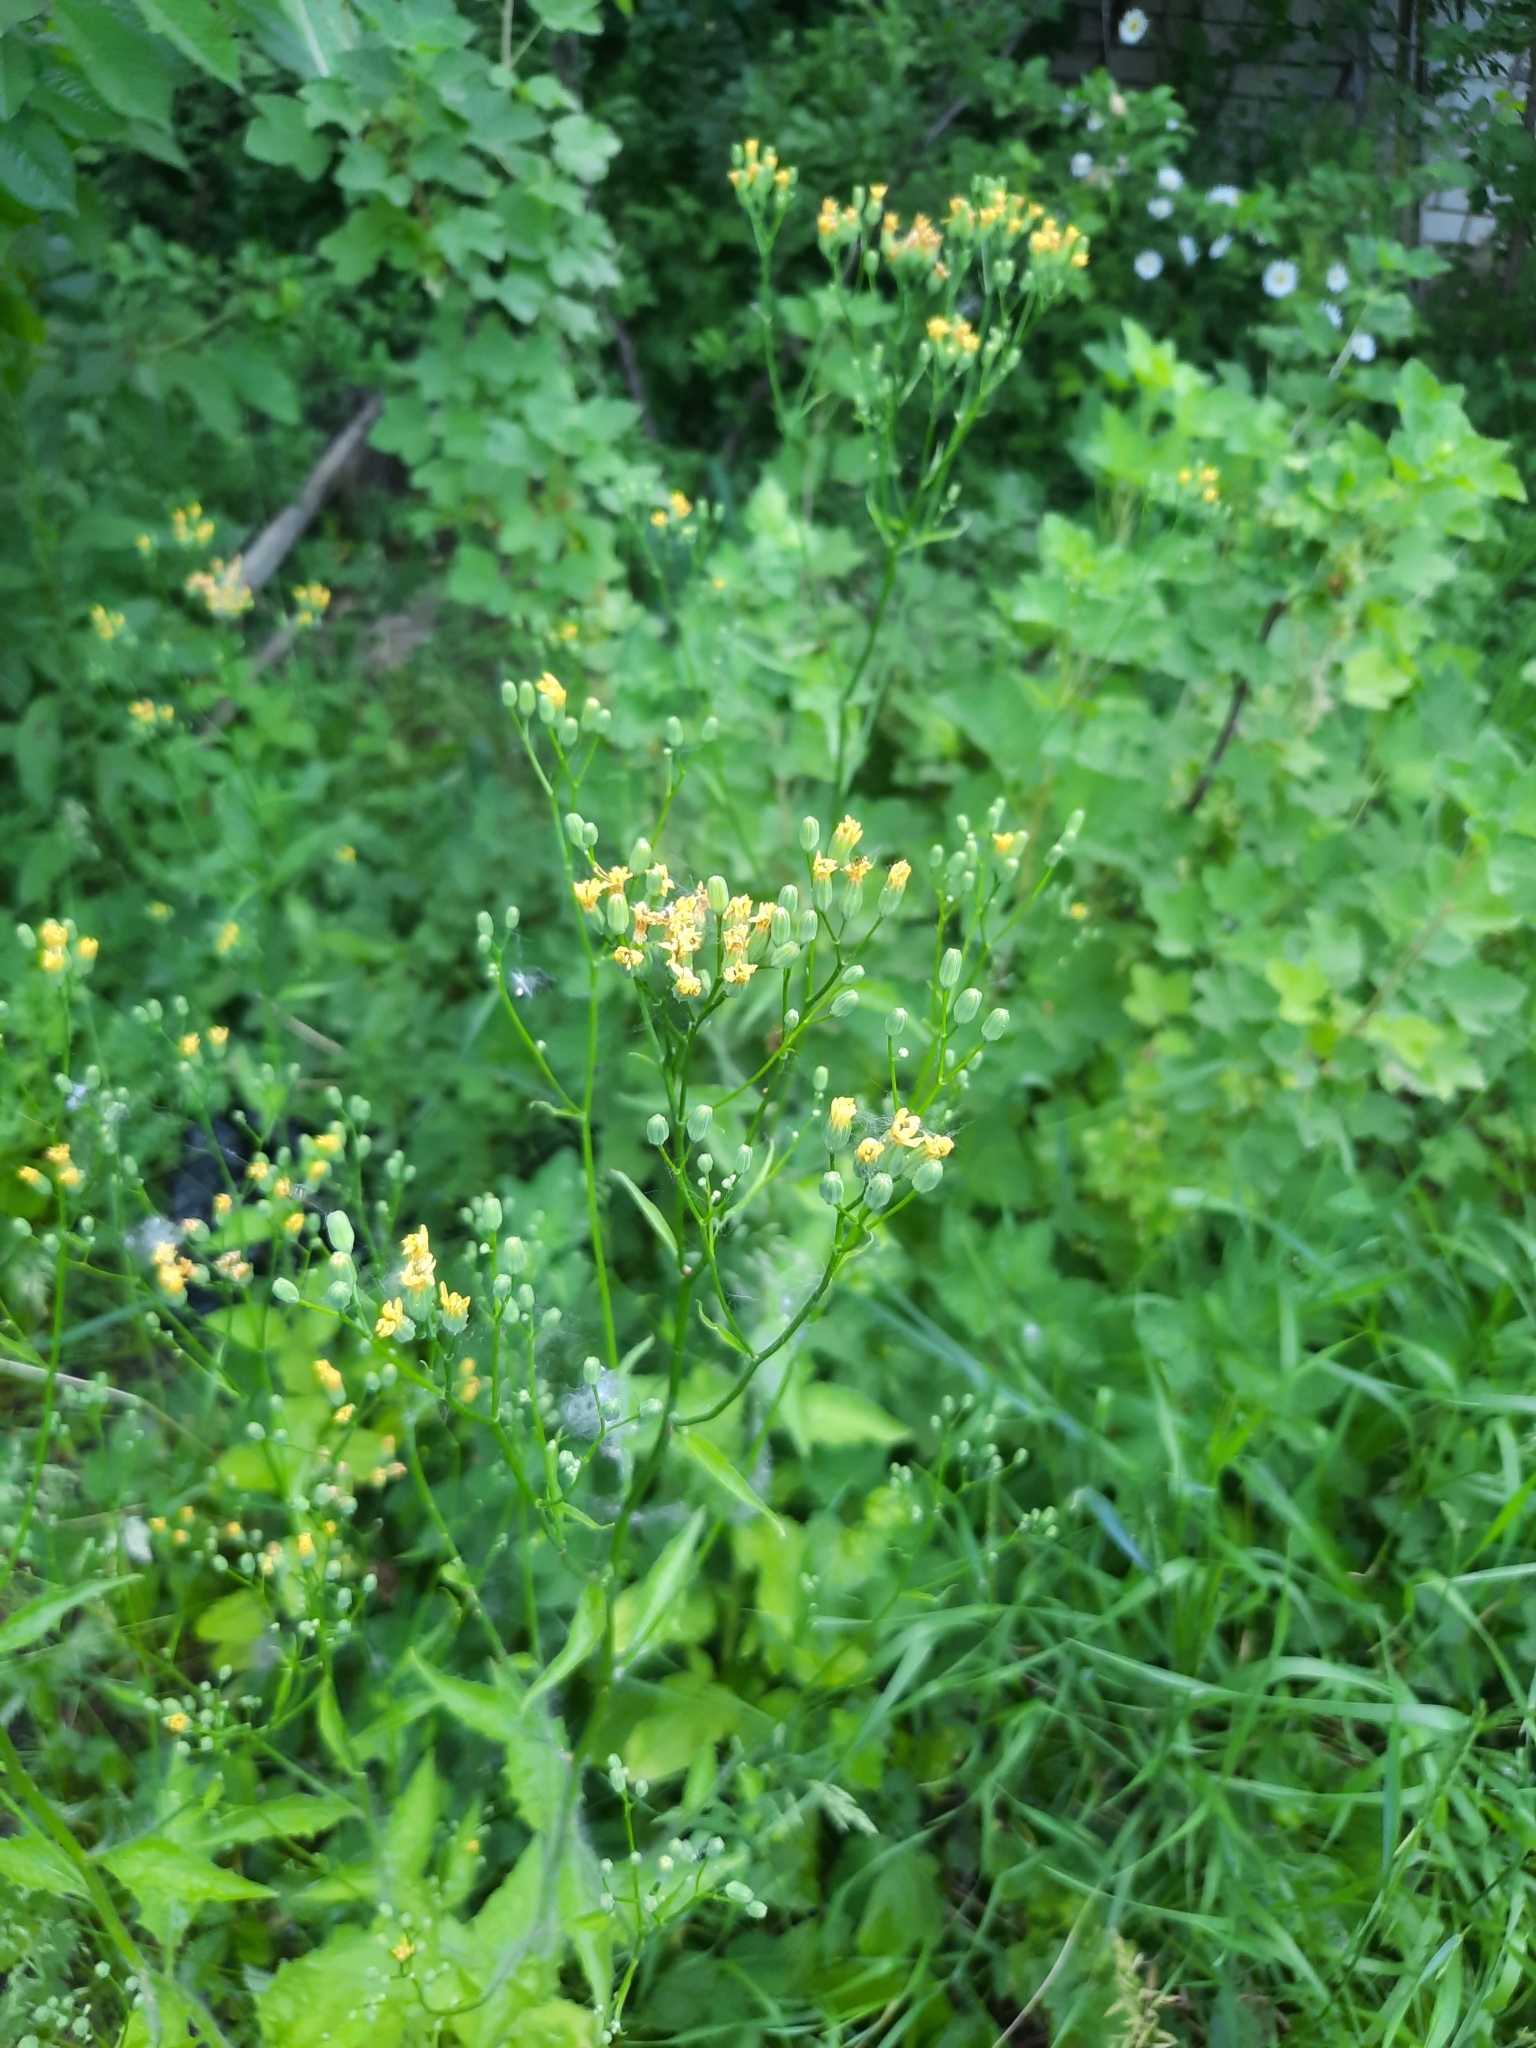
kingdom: Plantae
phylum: Tracheophyta
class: Magnoliopsida
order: Asterales
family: Asteraceae
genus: Lapsana
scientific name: Lapsana communis
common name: Nipplewort
